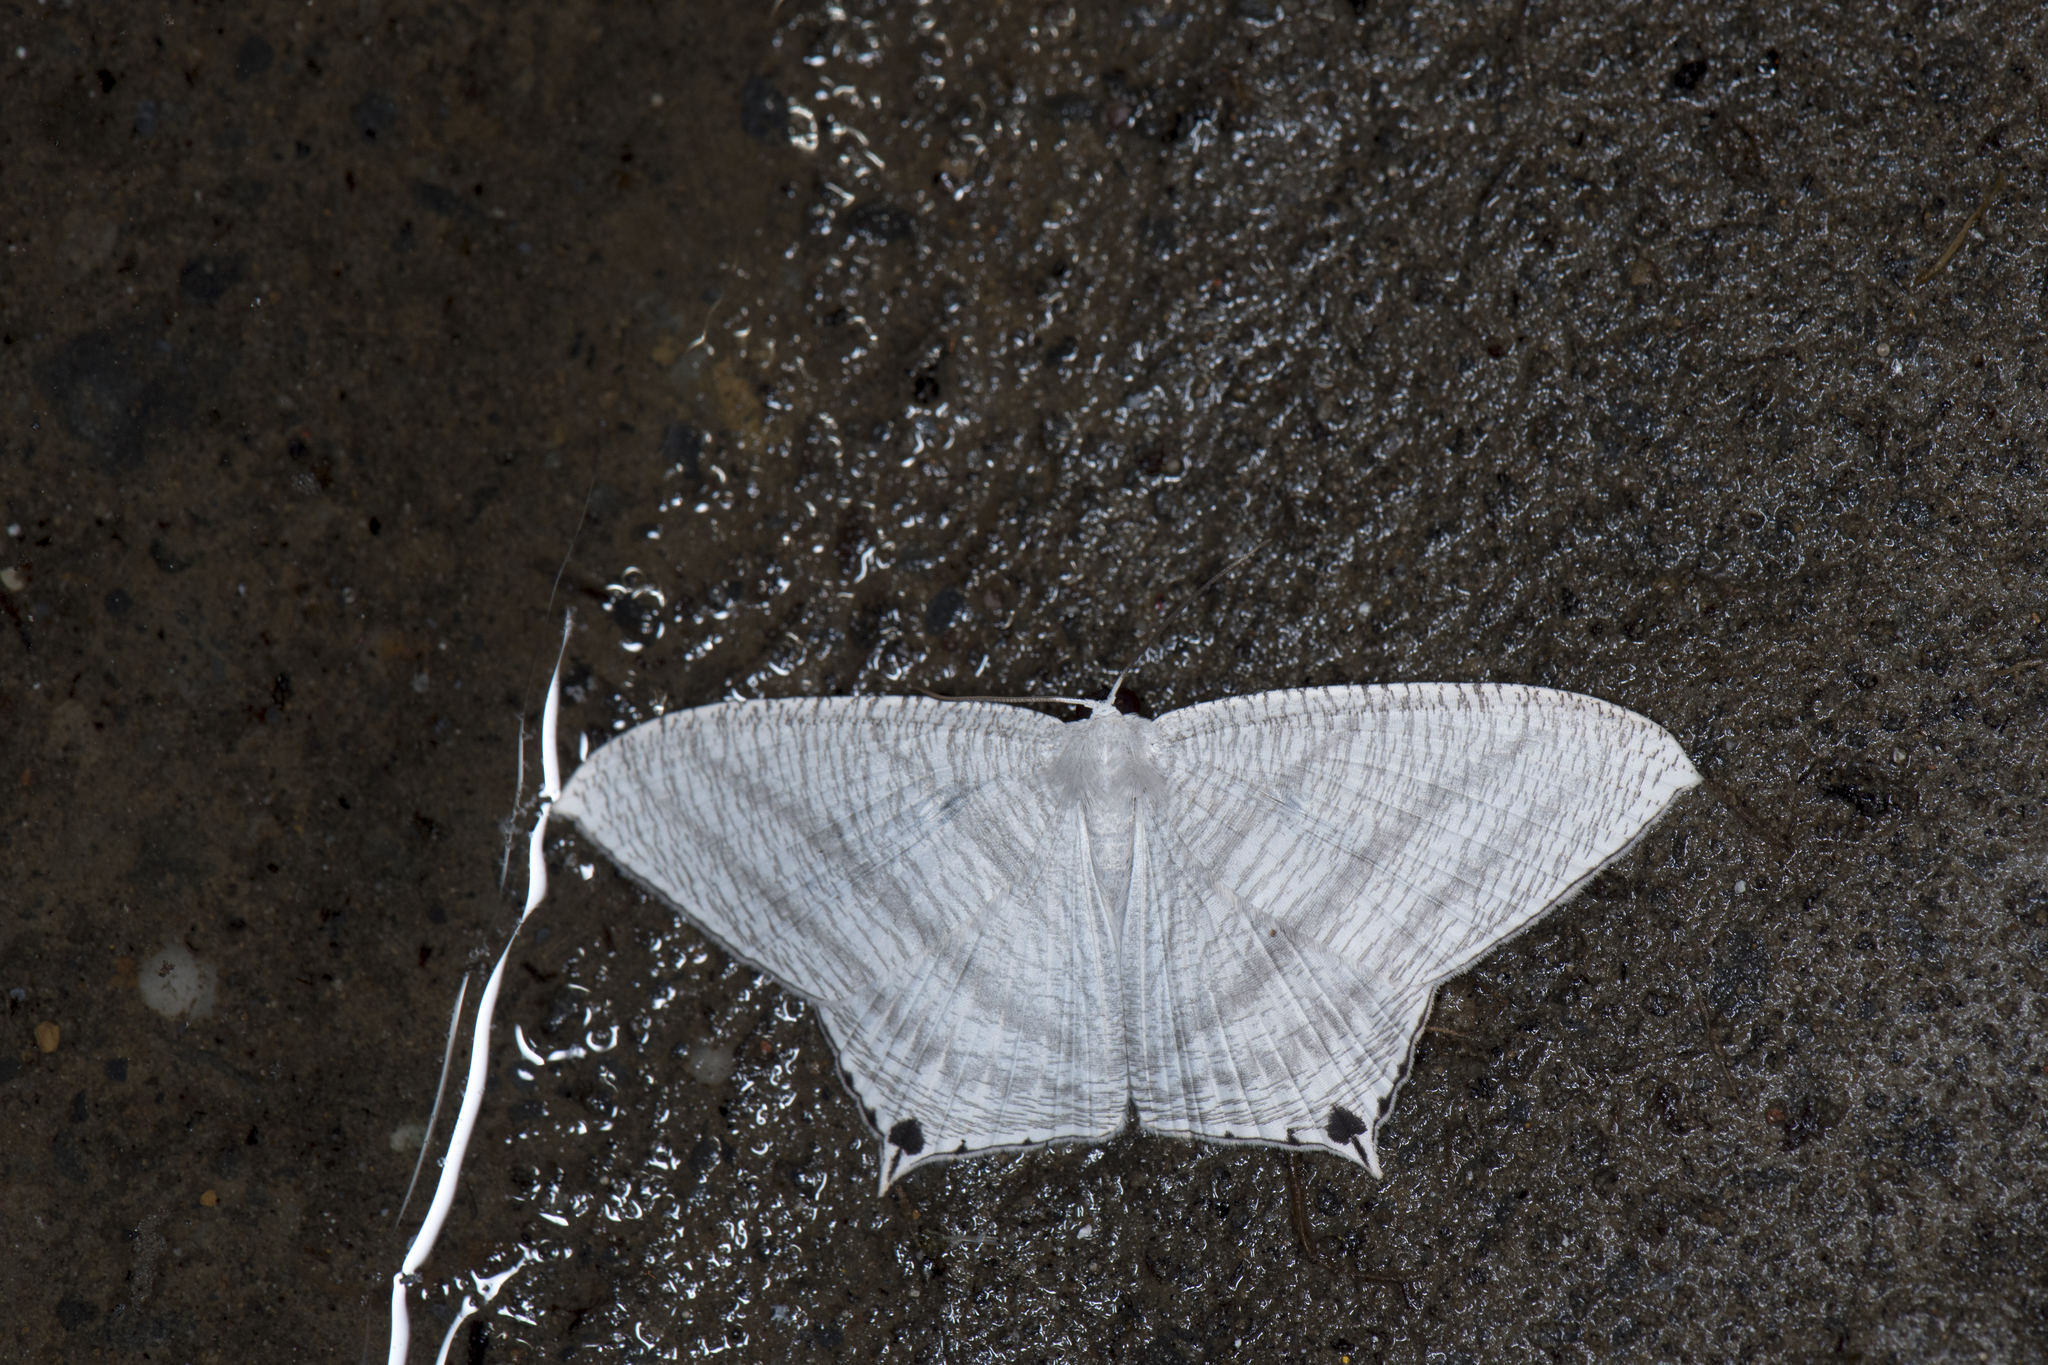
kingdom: Animalia
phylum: Arthropoda
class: Insecta
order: Lepidoptera
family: Uraniidae
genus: Micronia
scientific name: Micronia aculeata
